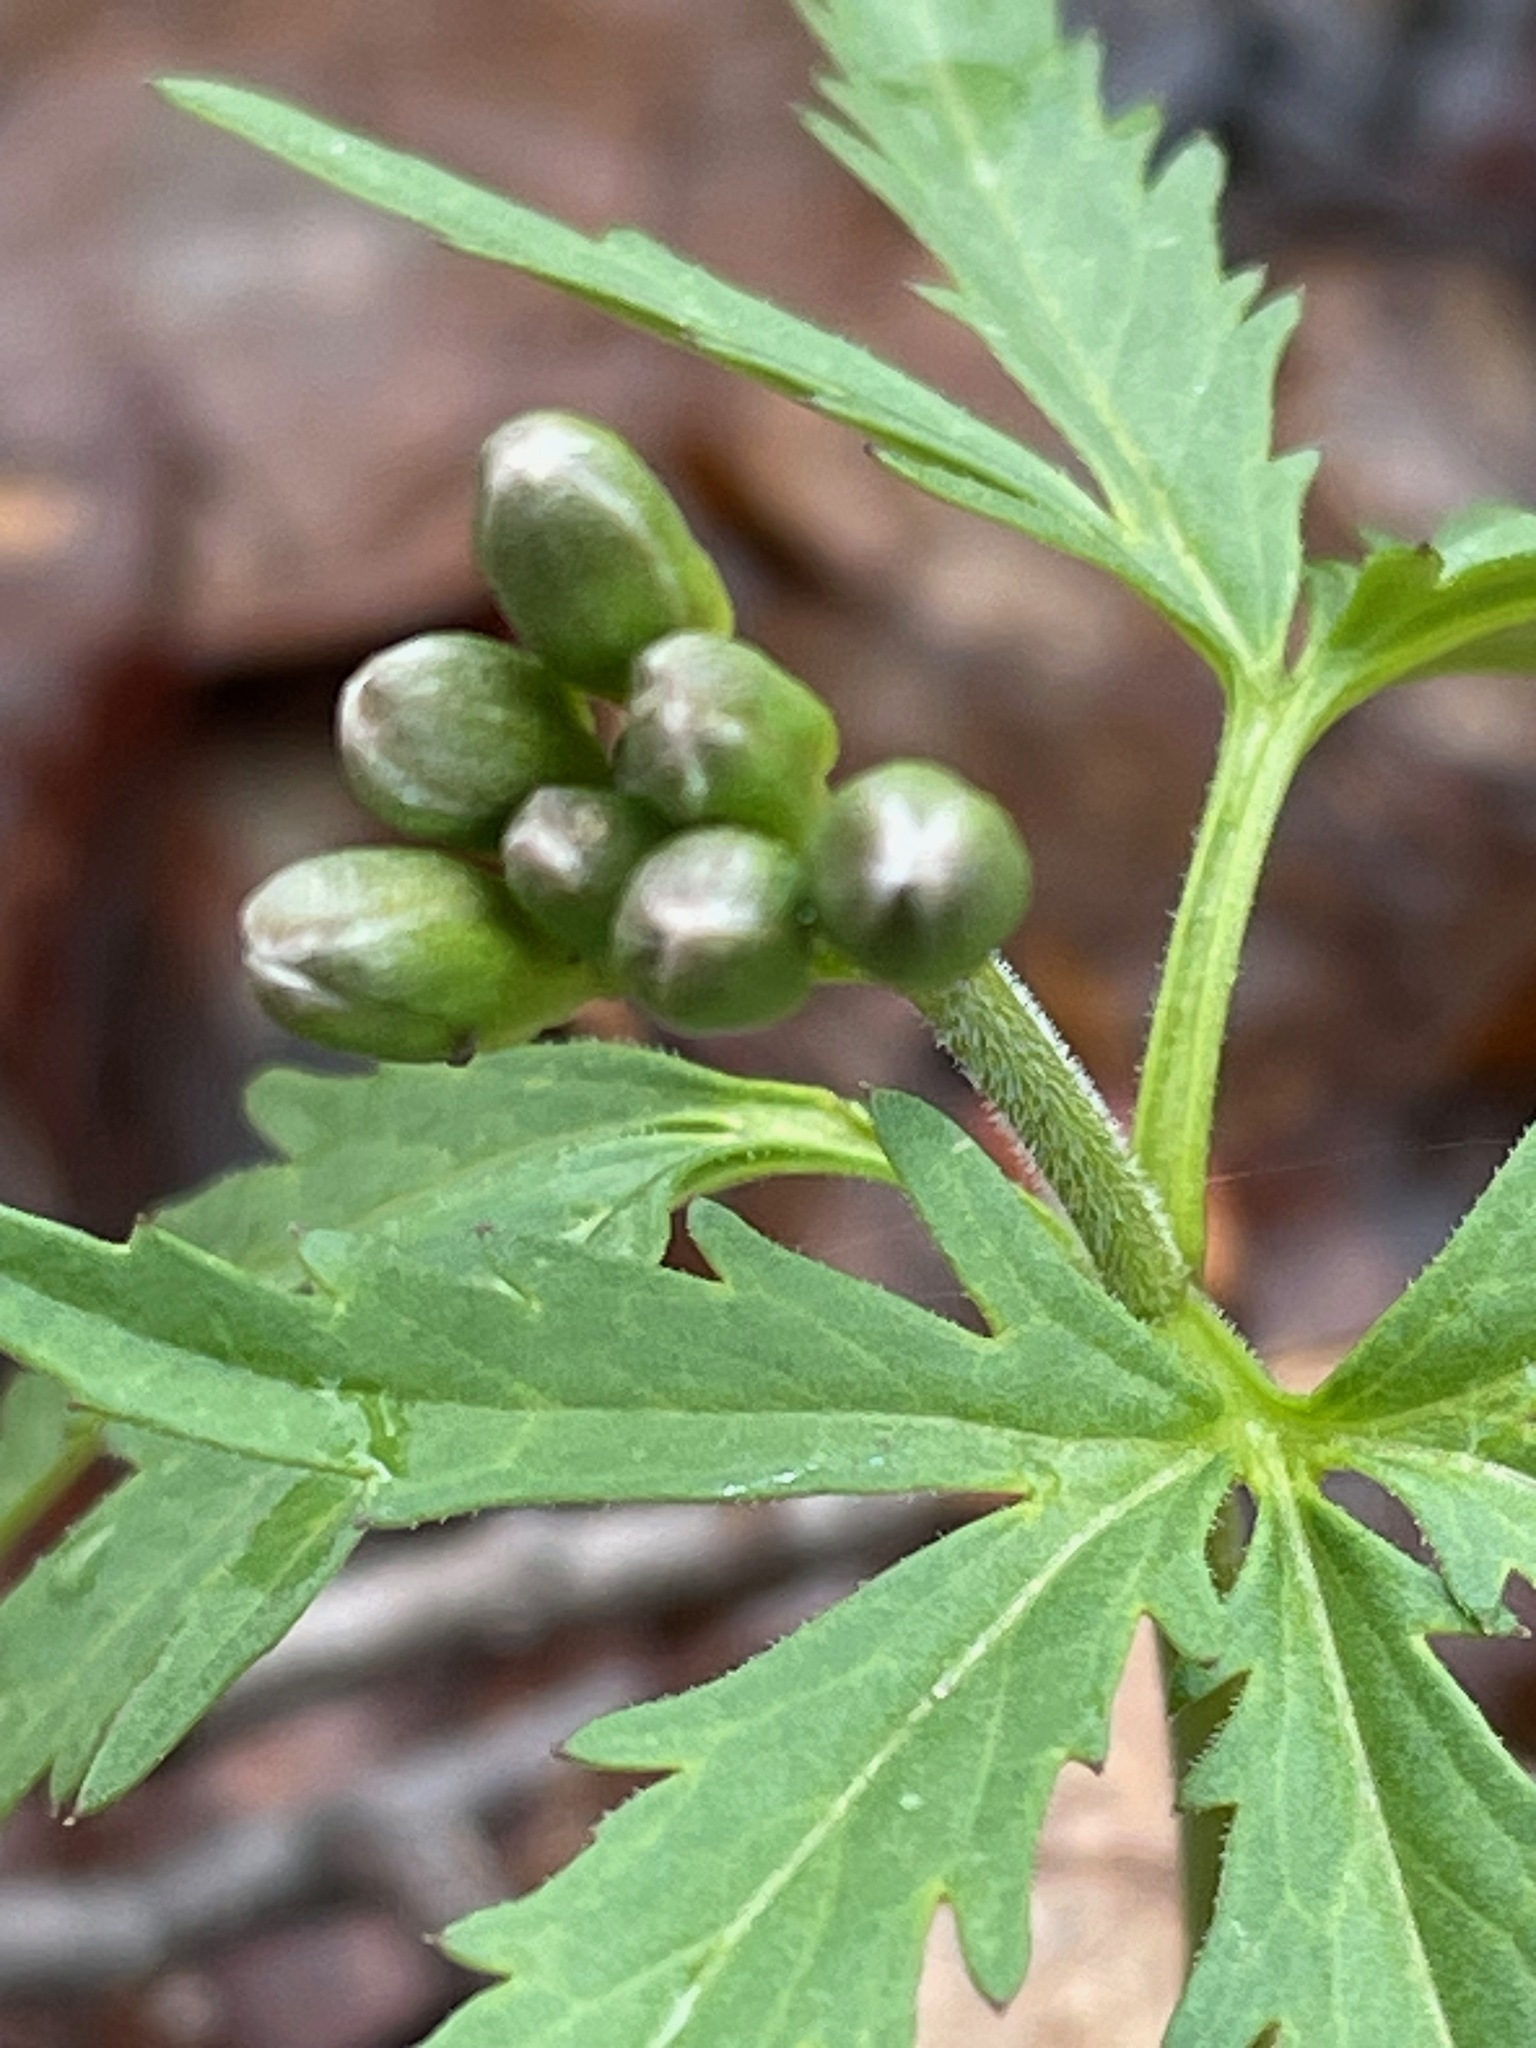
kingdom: Plantae
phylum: Tracheophyta
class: Magnoliopsida
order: Brassicales
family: Brassicaceae
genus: Cardamine
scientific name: Cardamine concatenata
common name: Cut-leaf toothcup
